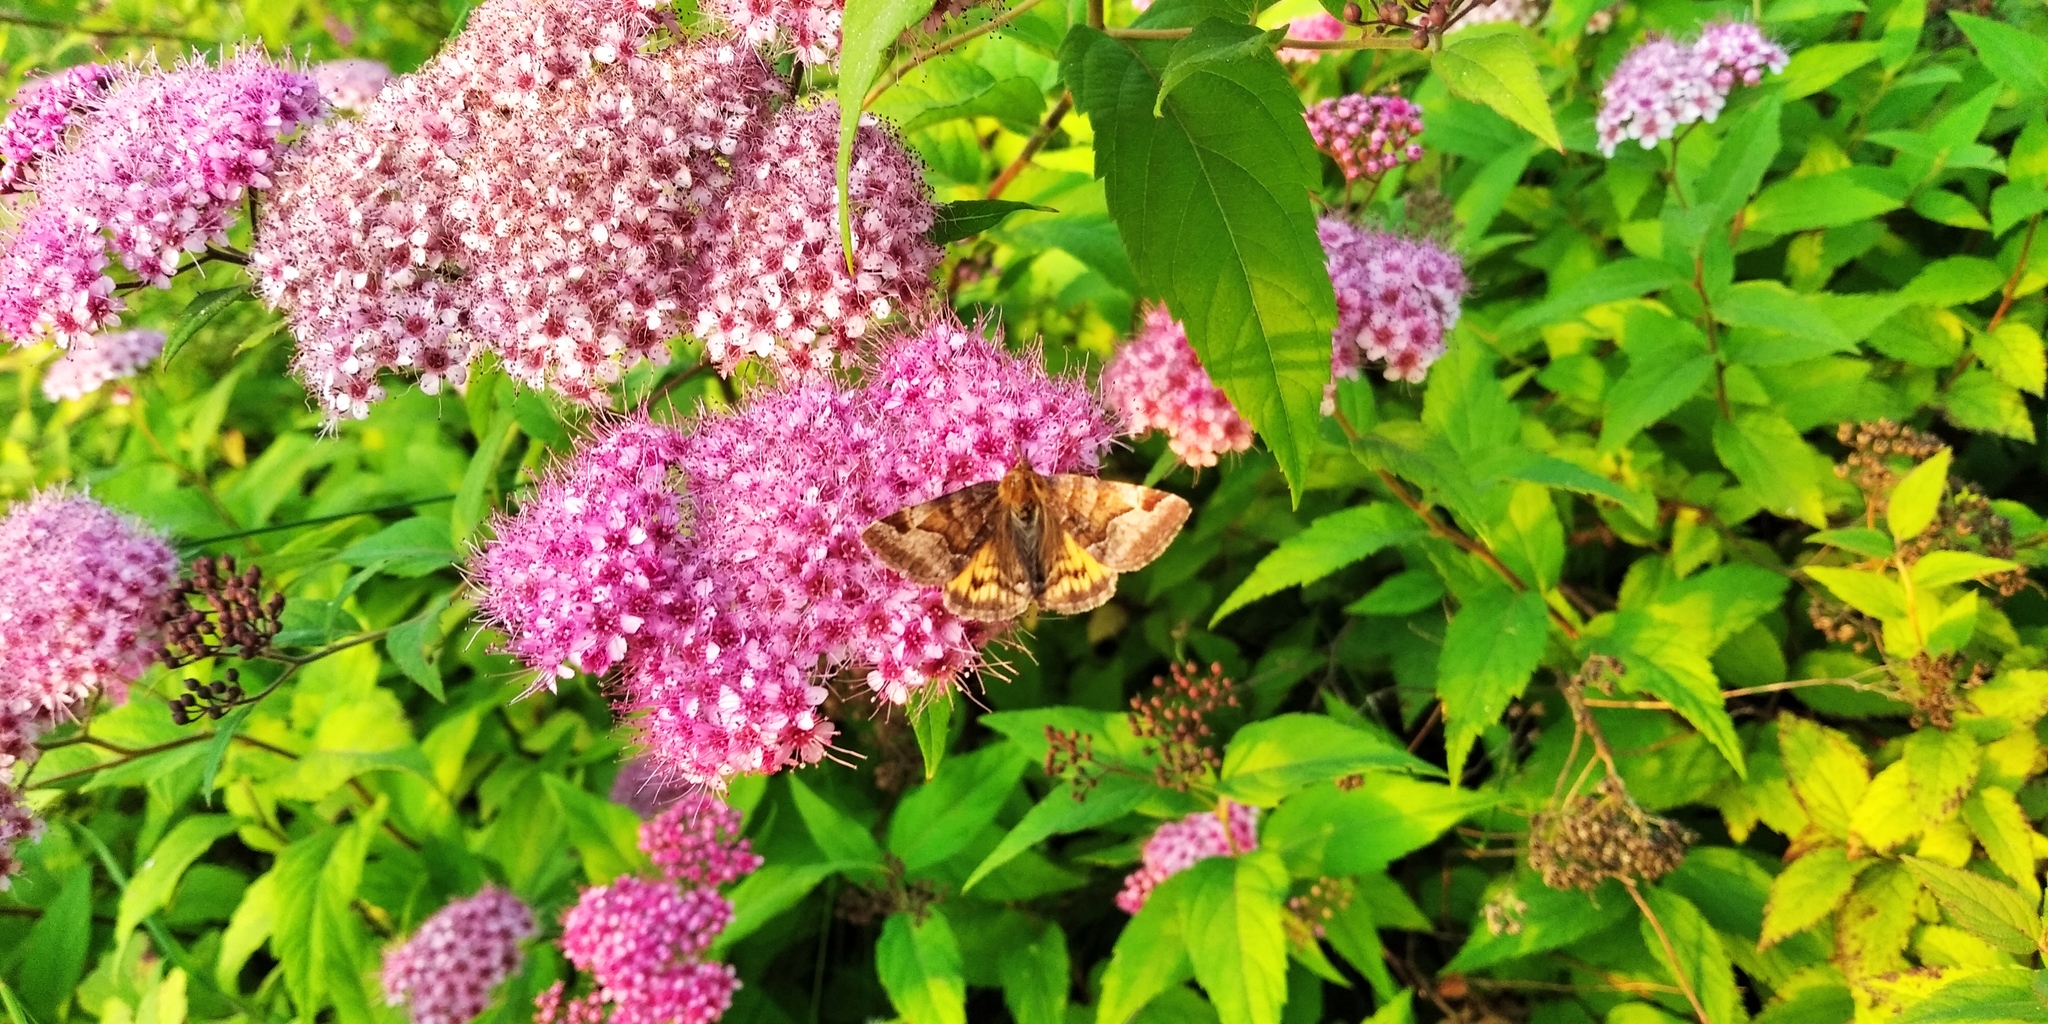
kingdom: Animalia
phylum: Arthropoda
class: Insecta
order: Lepidoptera
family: Erebidae
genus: Euclidia
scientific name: Euclidia glyphica
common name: Burnet companion
